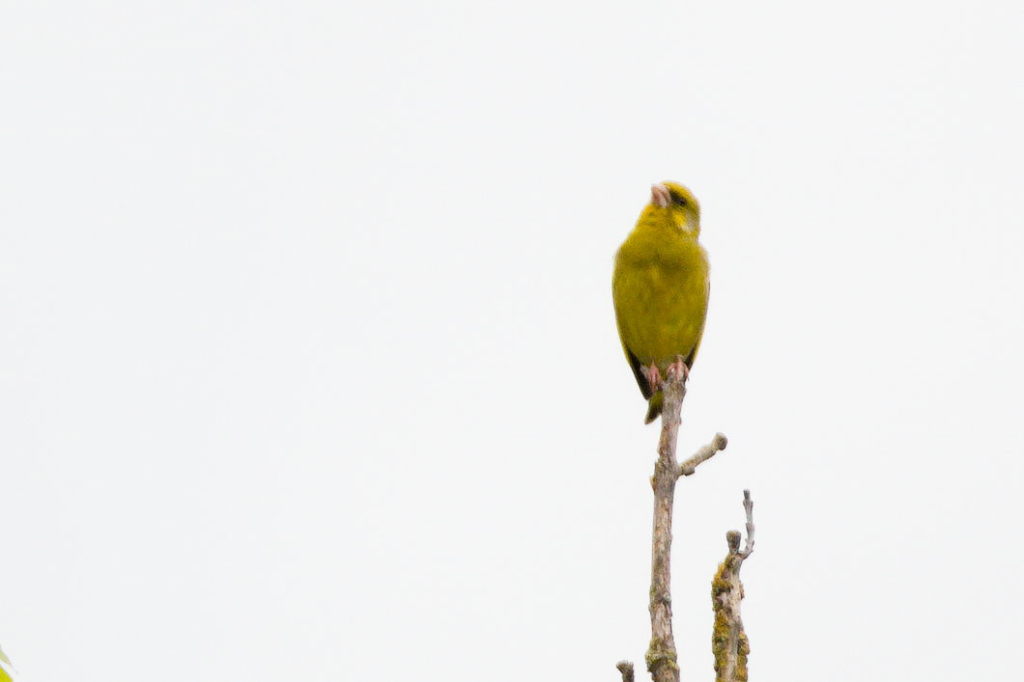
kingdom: Plantae
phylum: Tracheophyta
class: Liliopsida
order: Poales
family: Poaceae
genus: Chloris
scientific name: Chloris chloris
